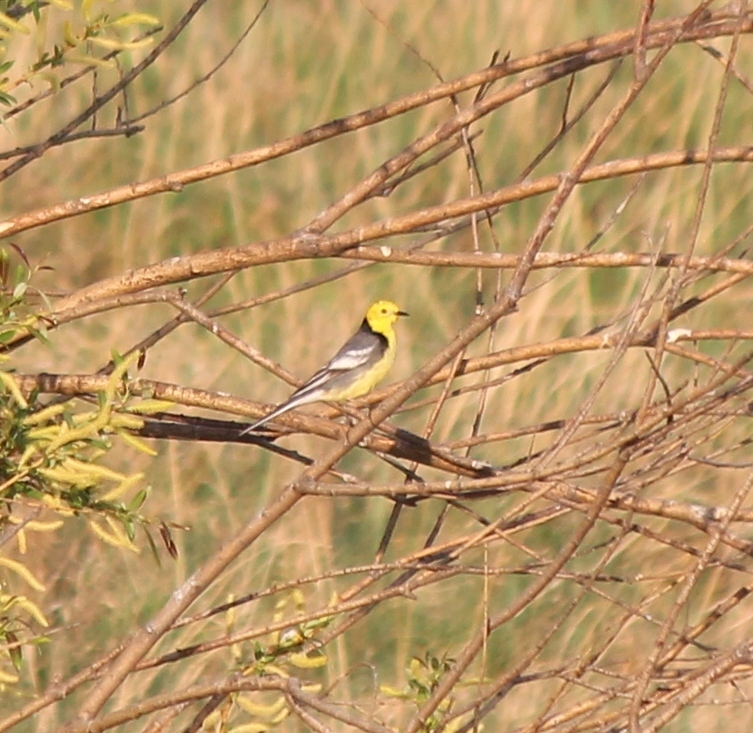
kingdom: Animalia
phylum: Chordata
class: Aves
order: Passeriformes
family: Motacillidae
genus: Motacilla
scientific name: Motacilla citreola
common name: Citrine wagtail
